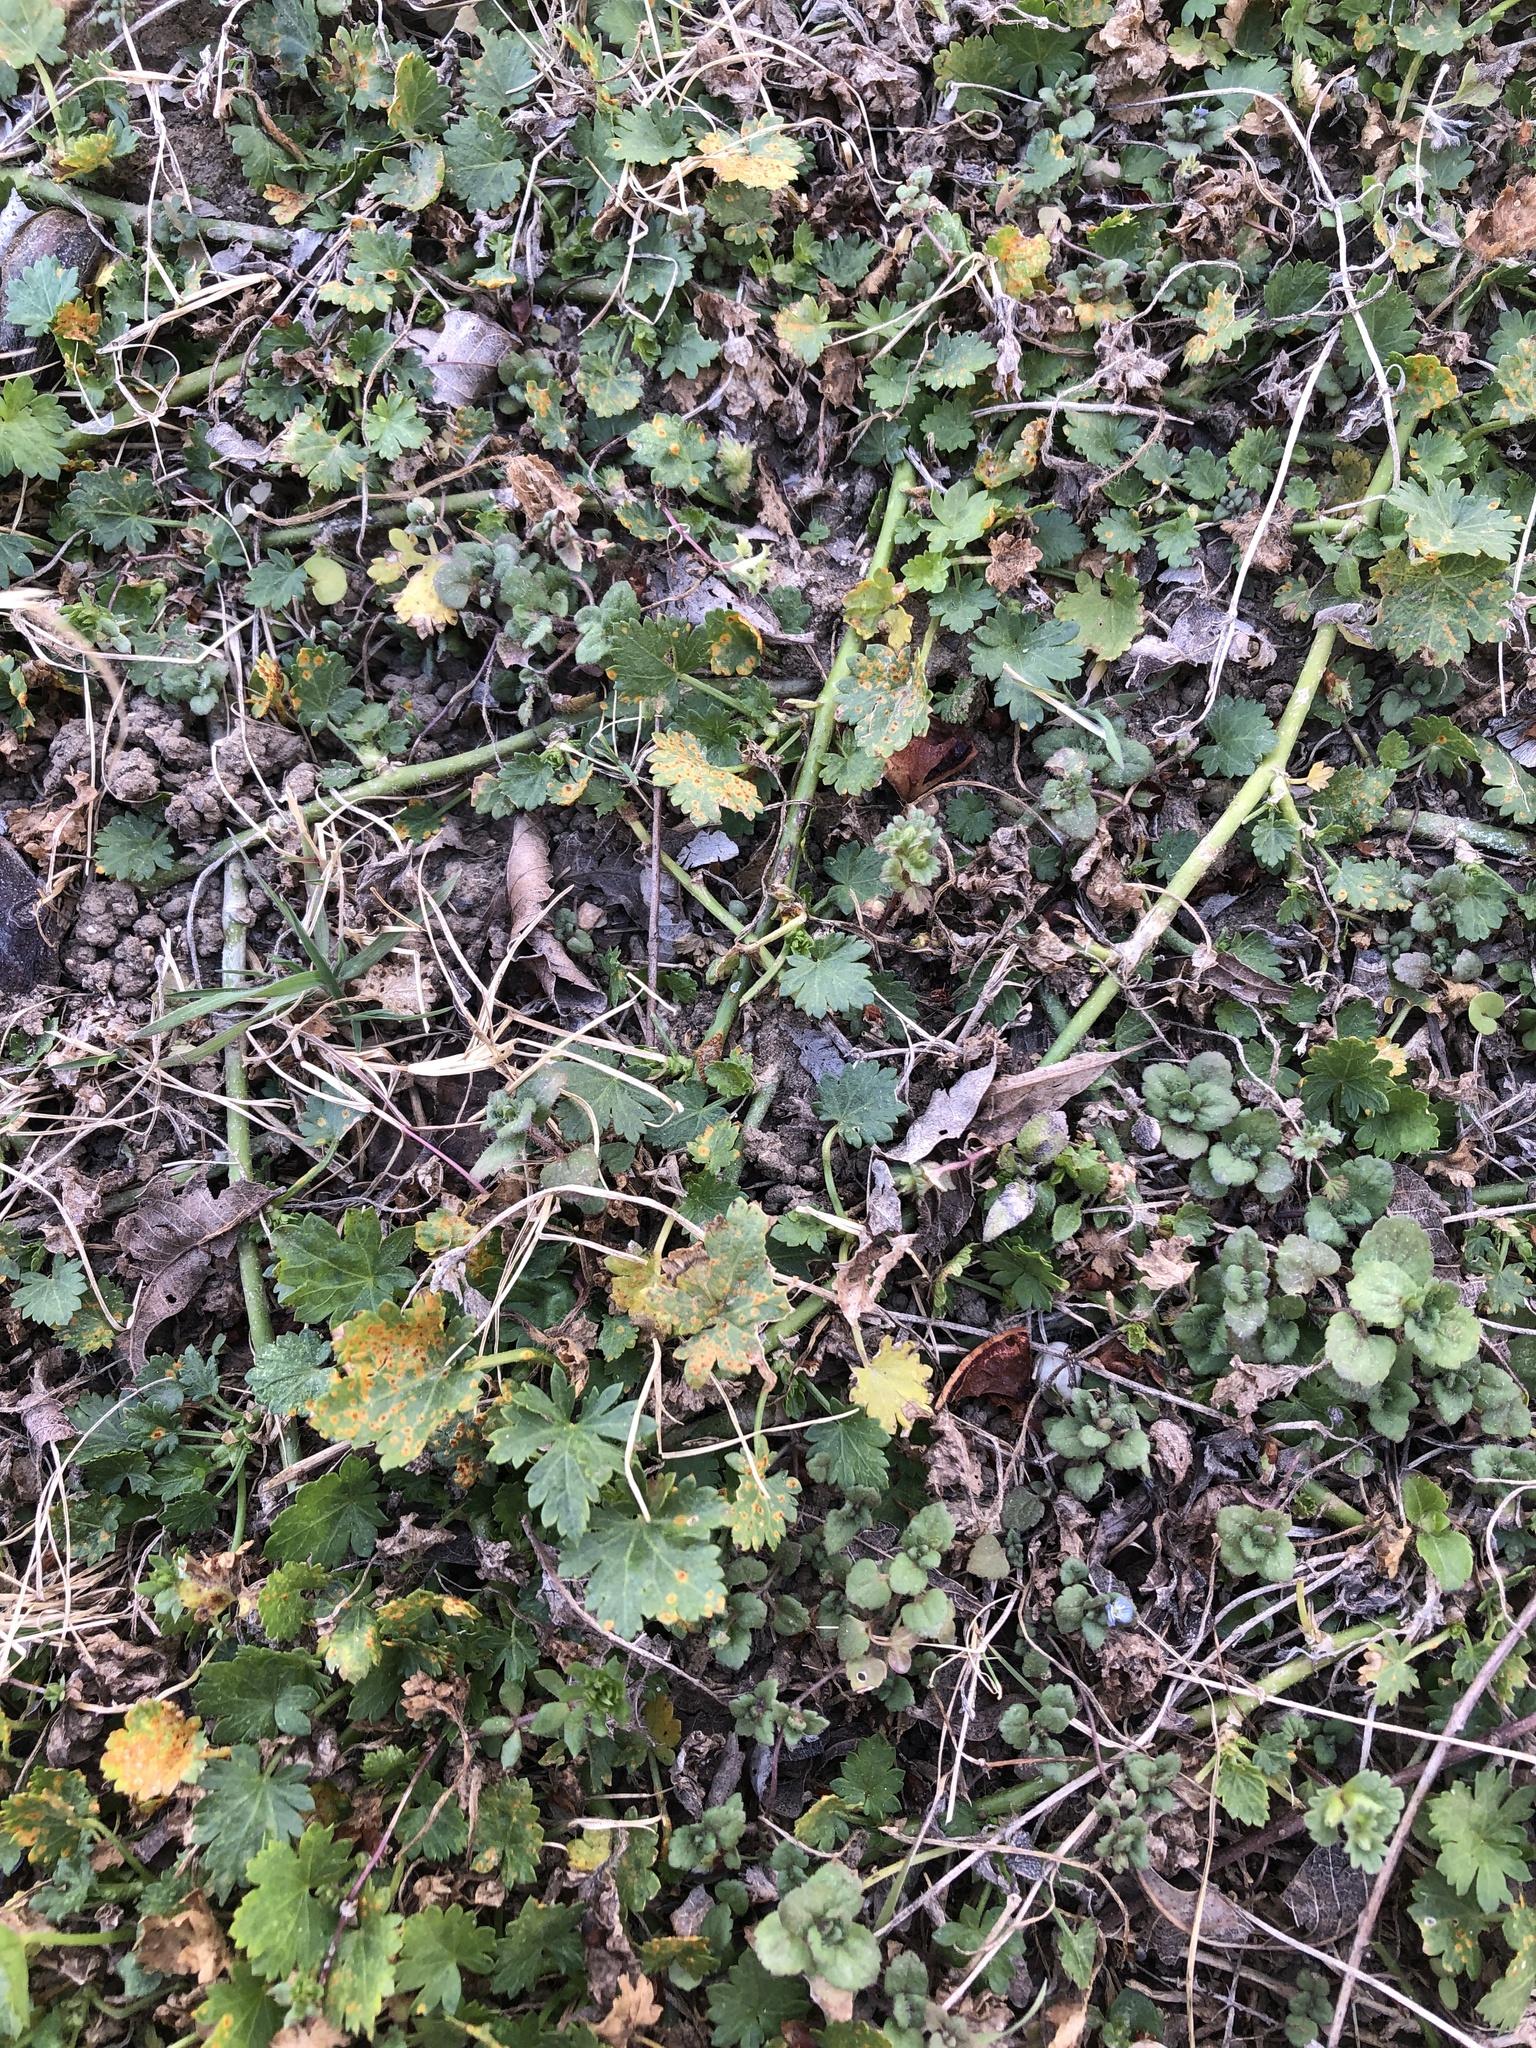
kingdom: Fungi
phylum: Basidiomycota
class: Pucciniomycetes
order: Pucciniales
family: Pucciniaceae
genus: Puccinia
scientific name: Puccinia modiolae
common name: Rust of bristlemallow
